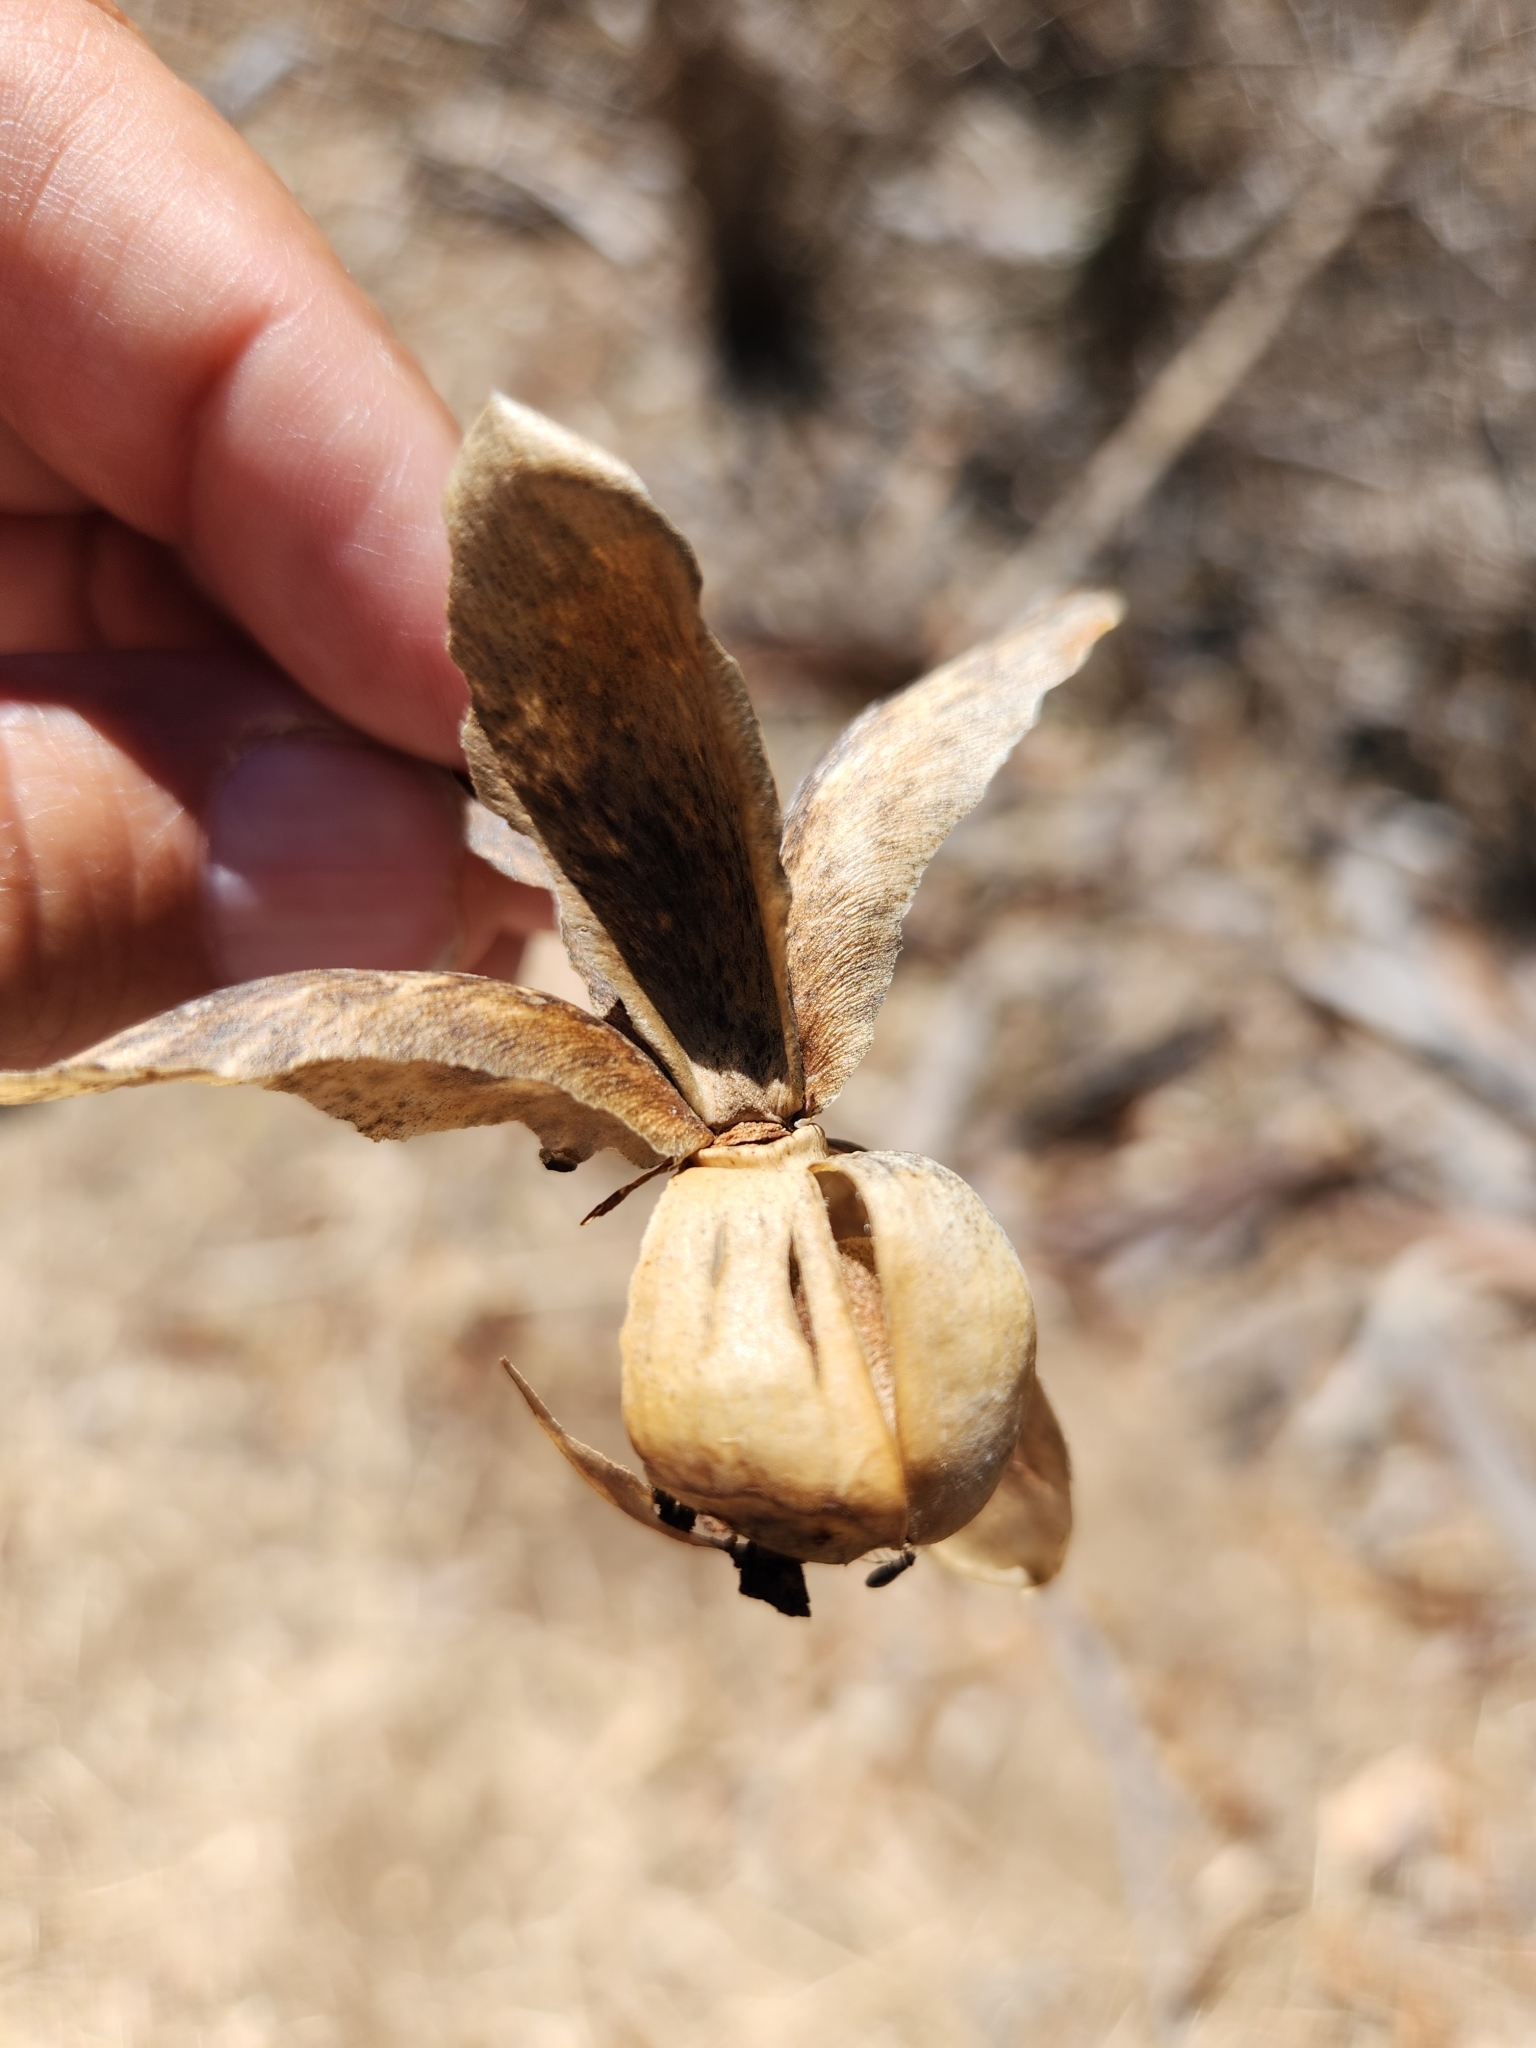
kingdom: Plantae
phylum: Tracheophyta
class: Magnoliopsida
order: Solanales
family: Convolvulaceae
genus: Distimake
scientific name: Distimake aureus
